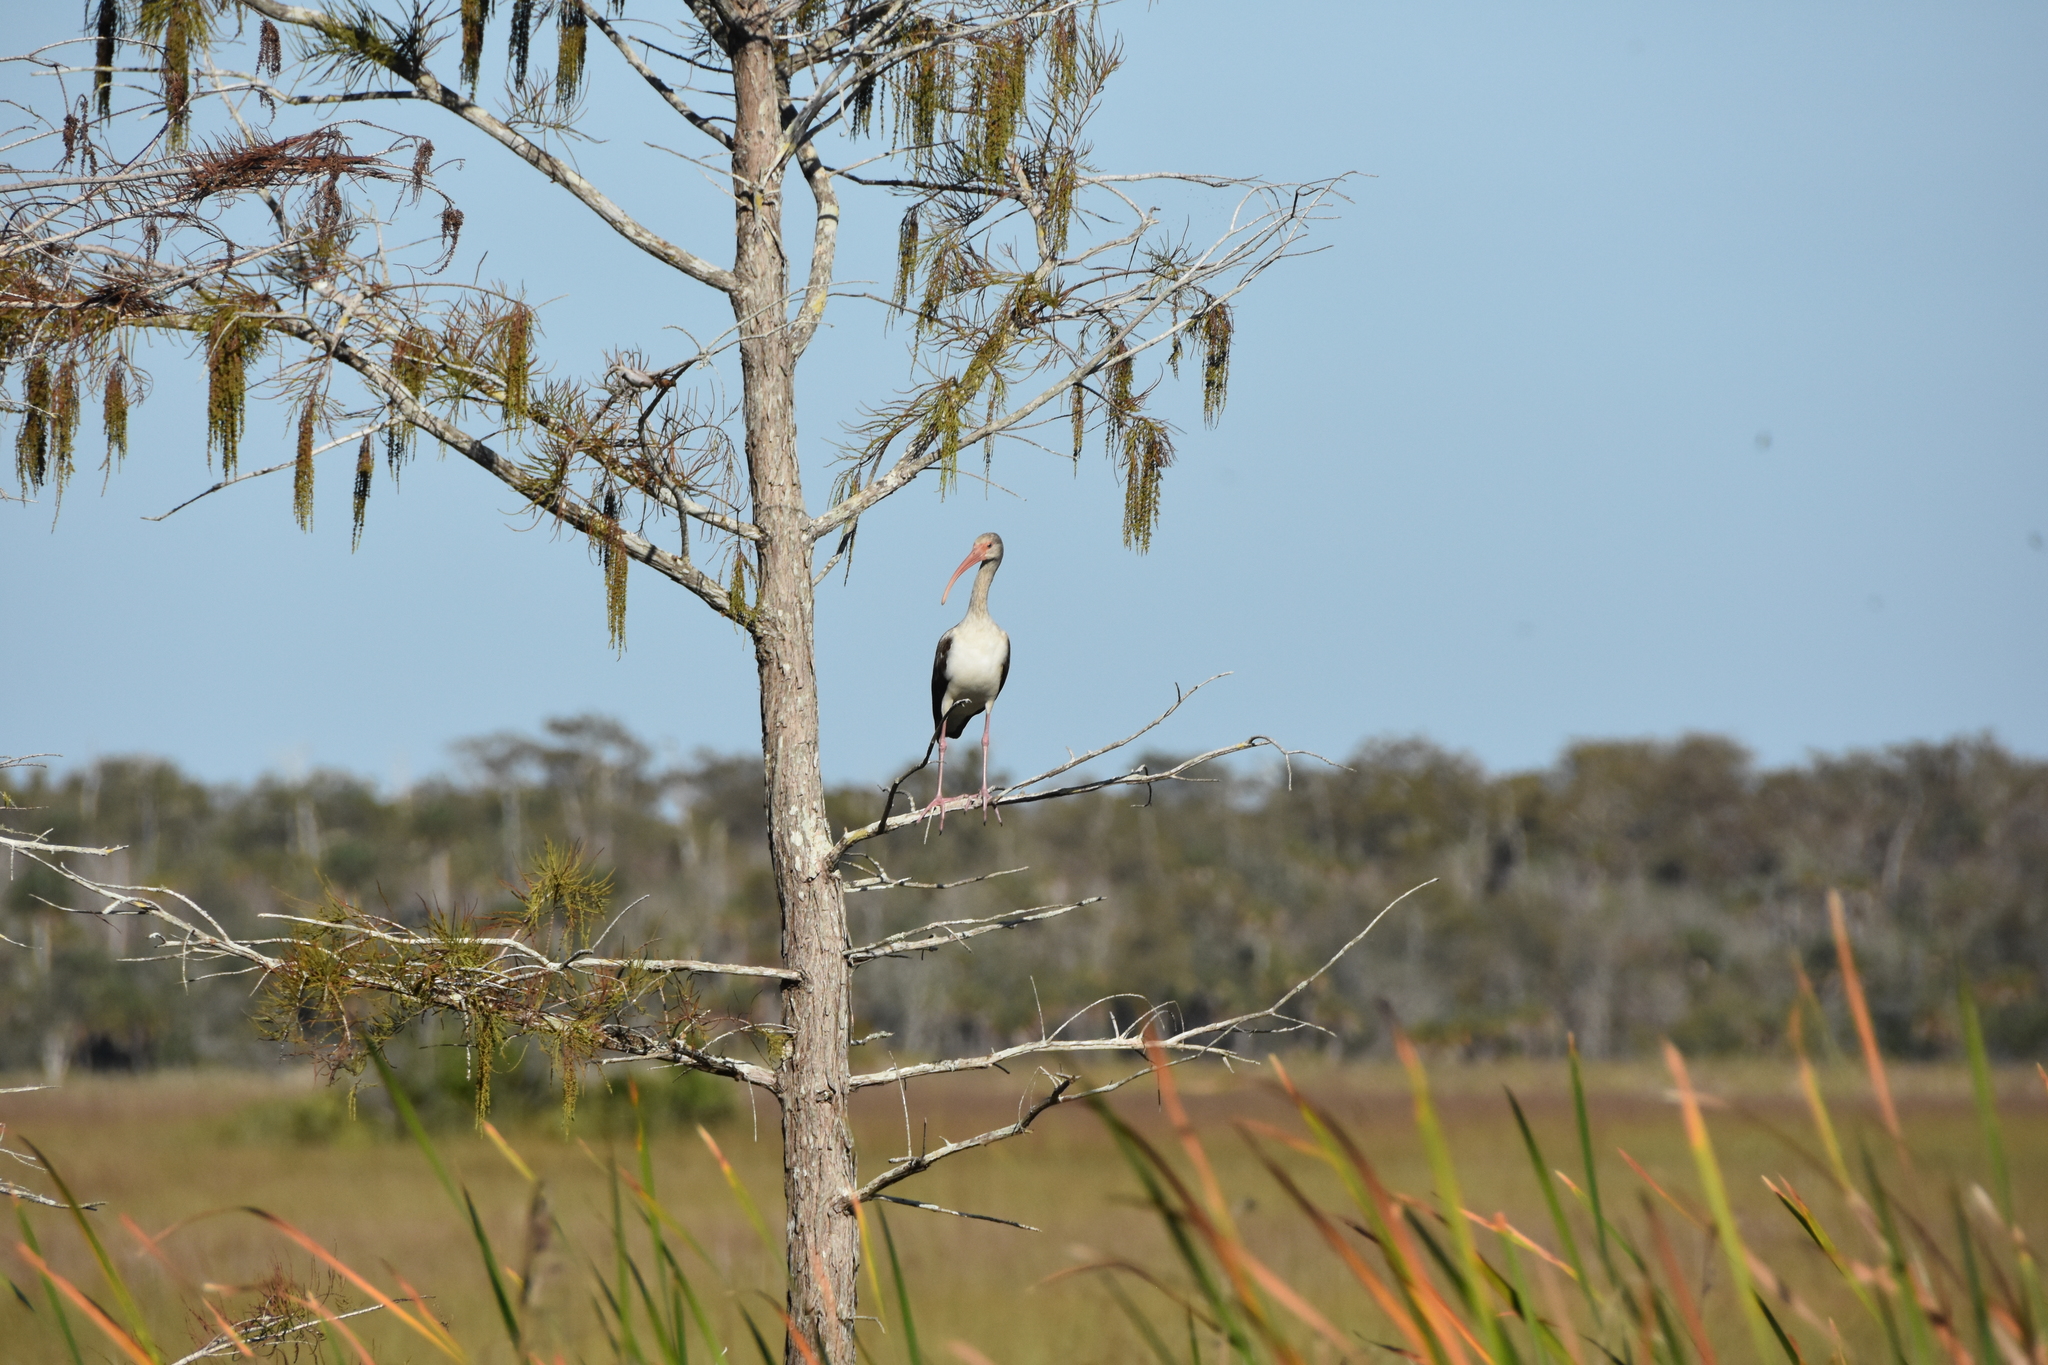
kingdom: Animalia
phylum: Chordata
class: Aves
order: Pelecaniformes
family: Threskiornithidae
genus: Eudocimus
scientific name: Eudocimus albus
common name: White ibis
